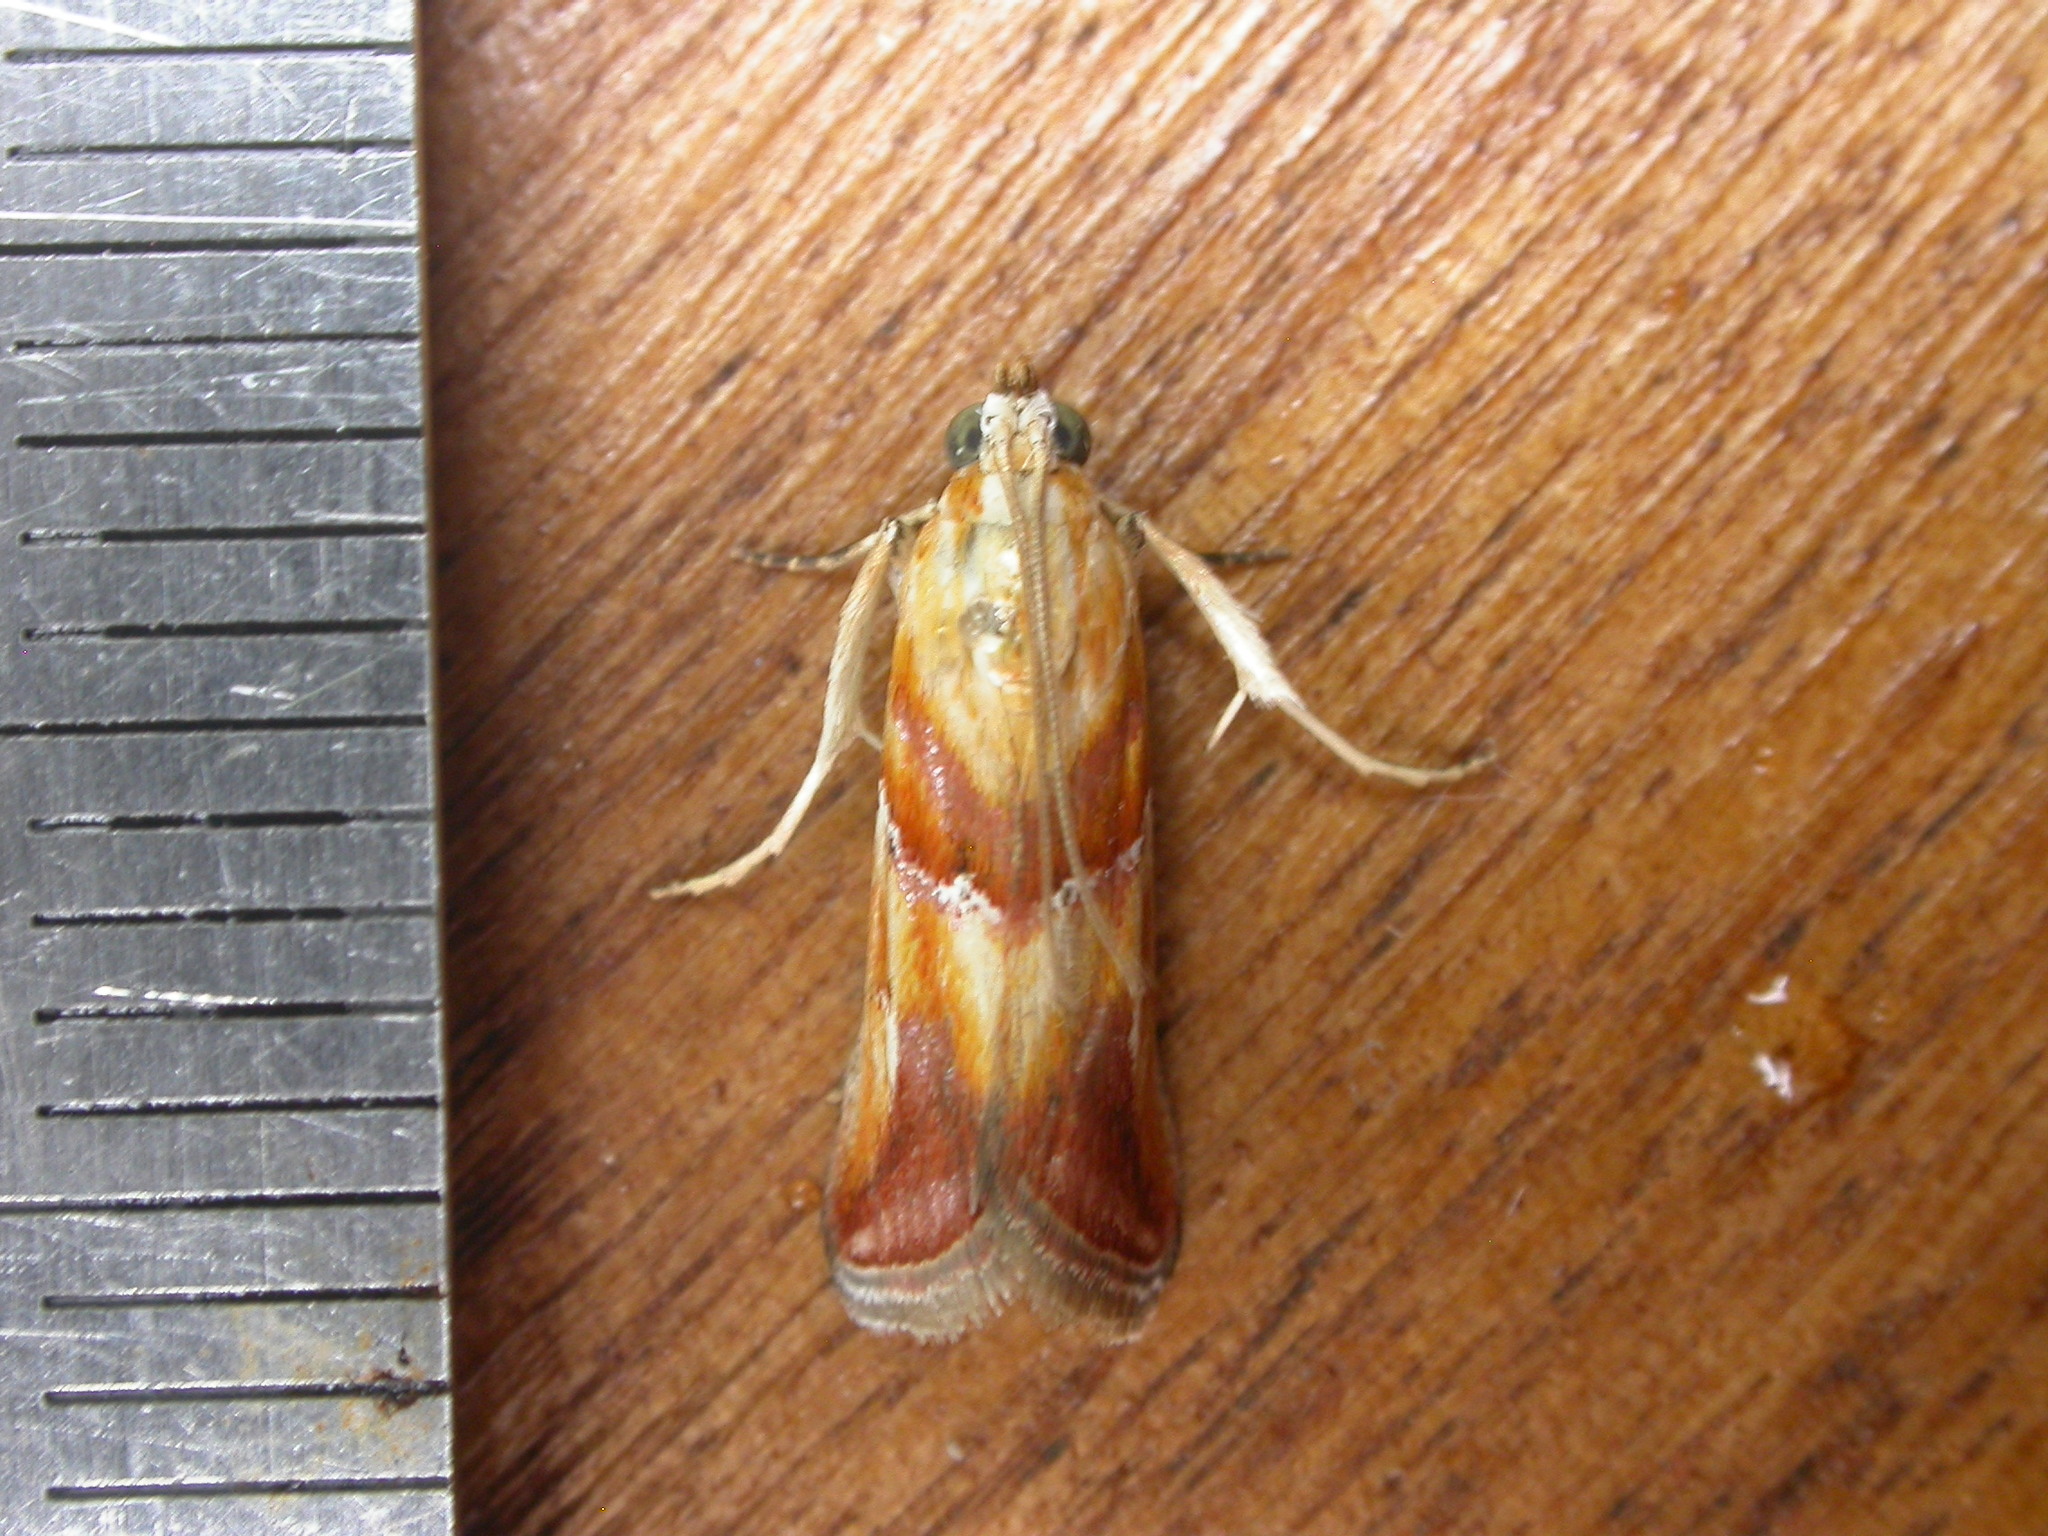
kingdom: Animalia
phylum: Arthropoda
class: Insecta
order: Lepidoptera
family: Pyralidae
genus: Epicrocis
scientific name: Epicrocis pulchra
